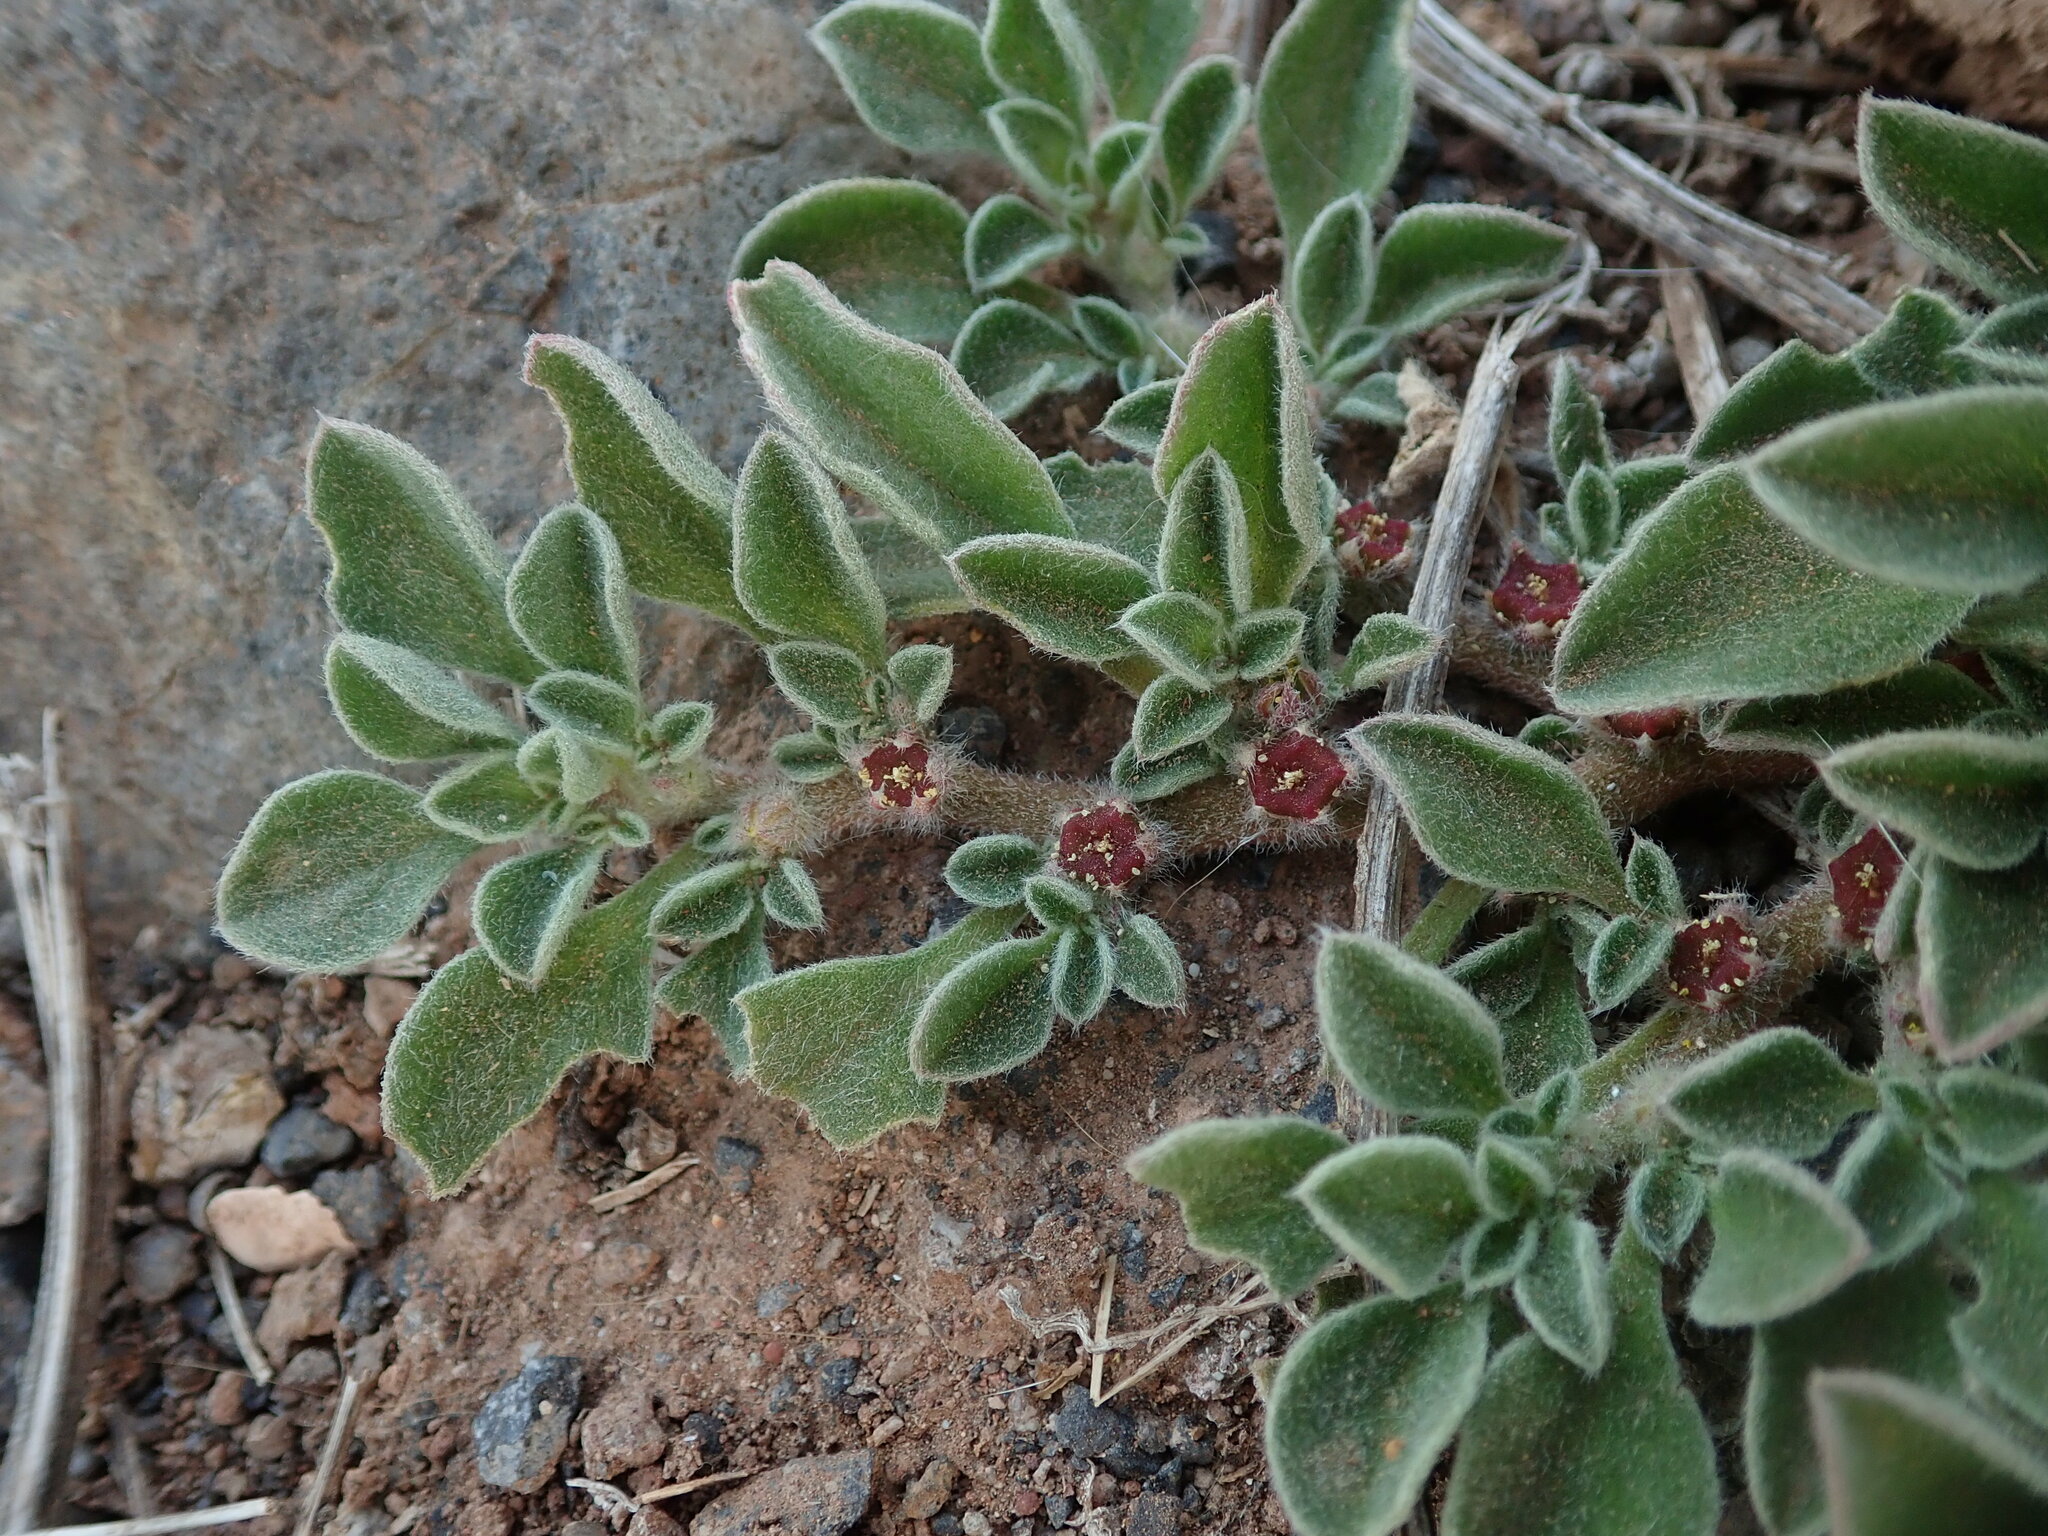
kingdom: Plantae
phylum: Tracheophyta
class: Magnoliopsida
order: Caryophyllales
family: Aizoaceae
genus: Aizoon
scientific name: Aizoon canariense
